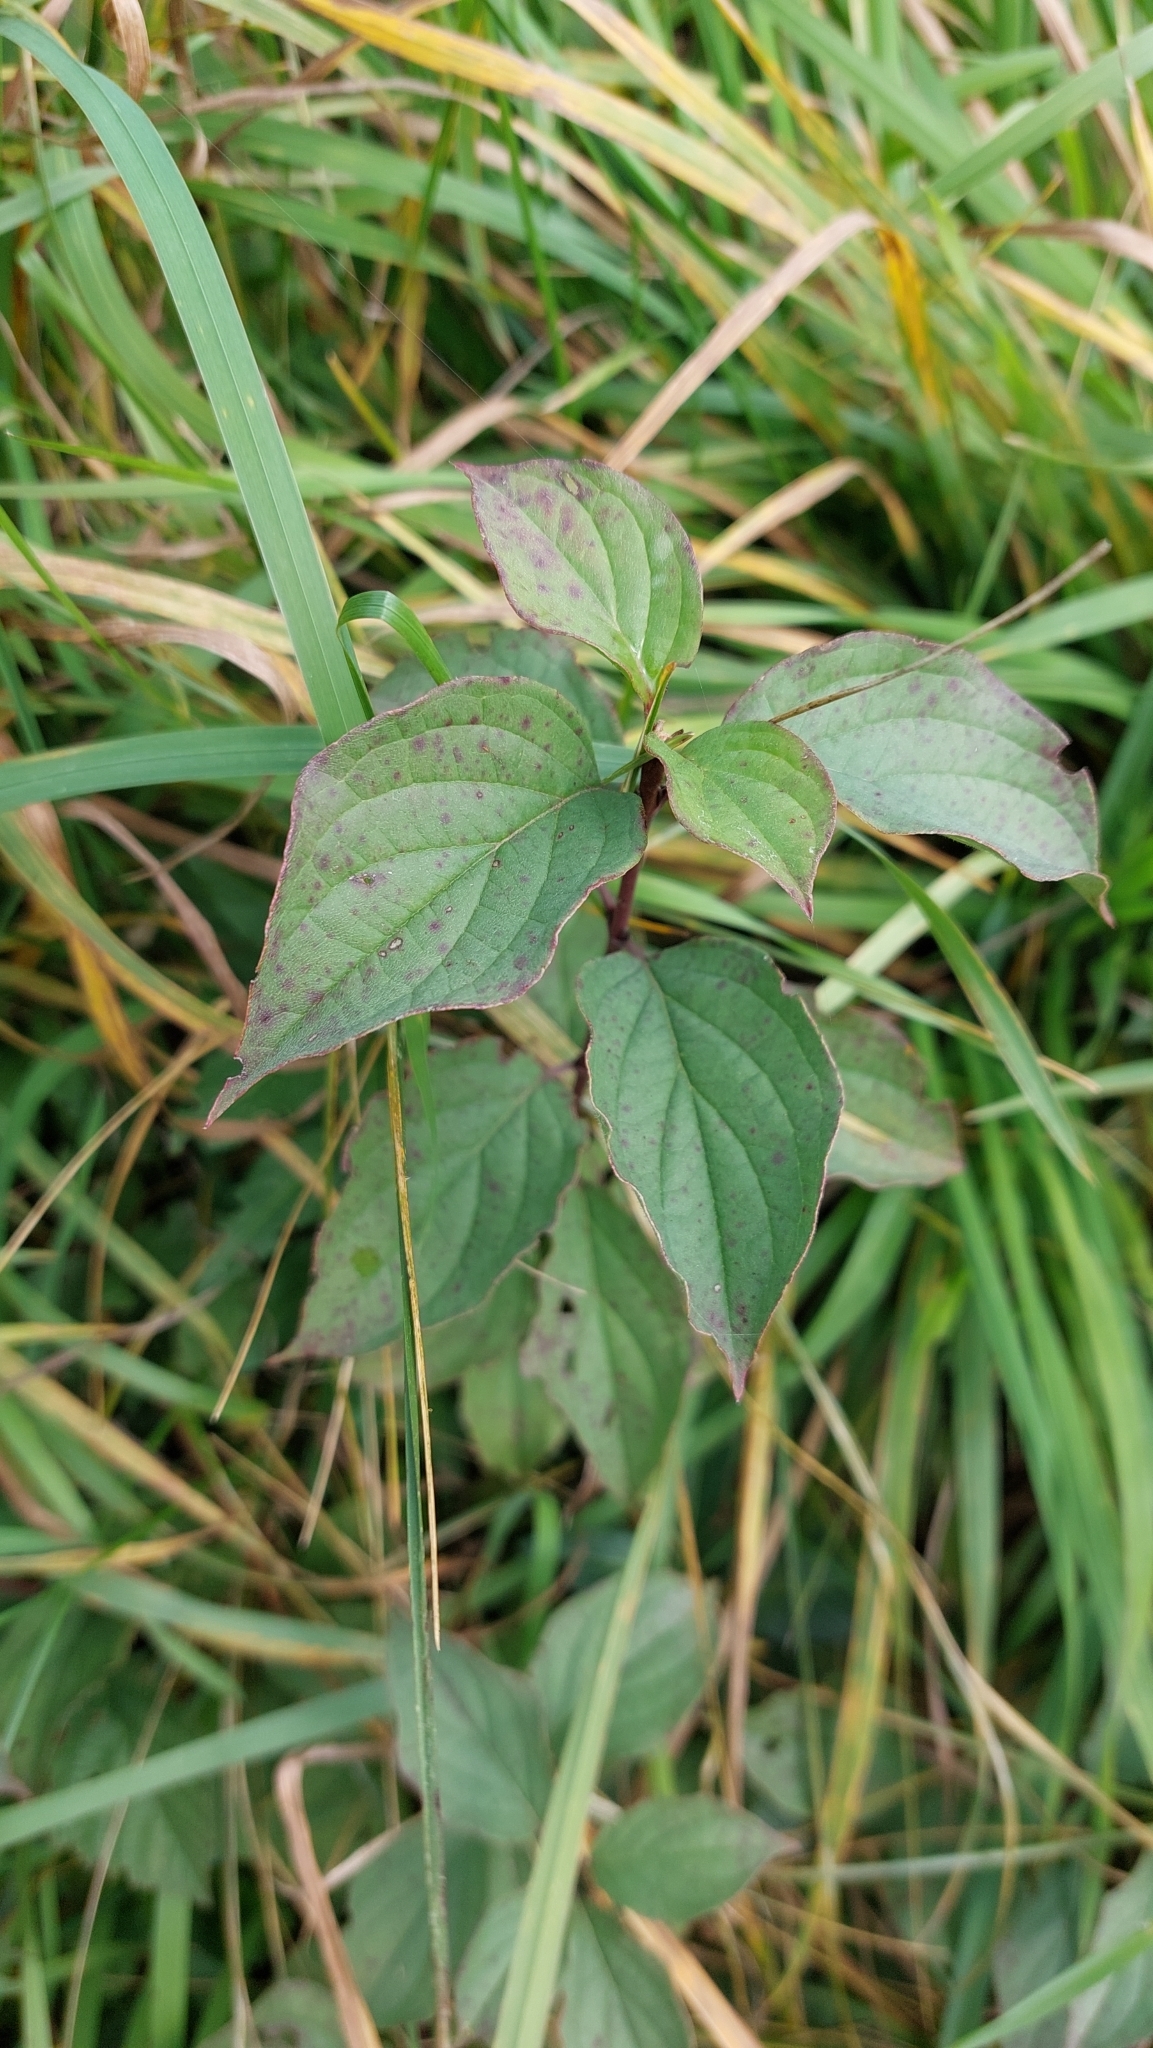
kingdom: Plantae
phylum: Tracheophyta
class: Magnoliopsida
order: Cornales
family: Cornaceae
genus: Cornus
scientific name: Cornus sanguinea
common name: Dogwood
